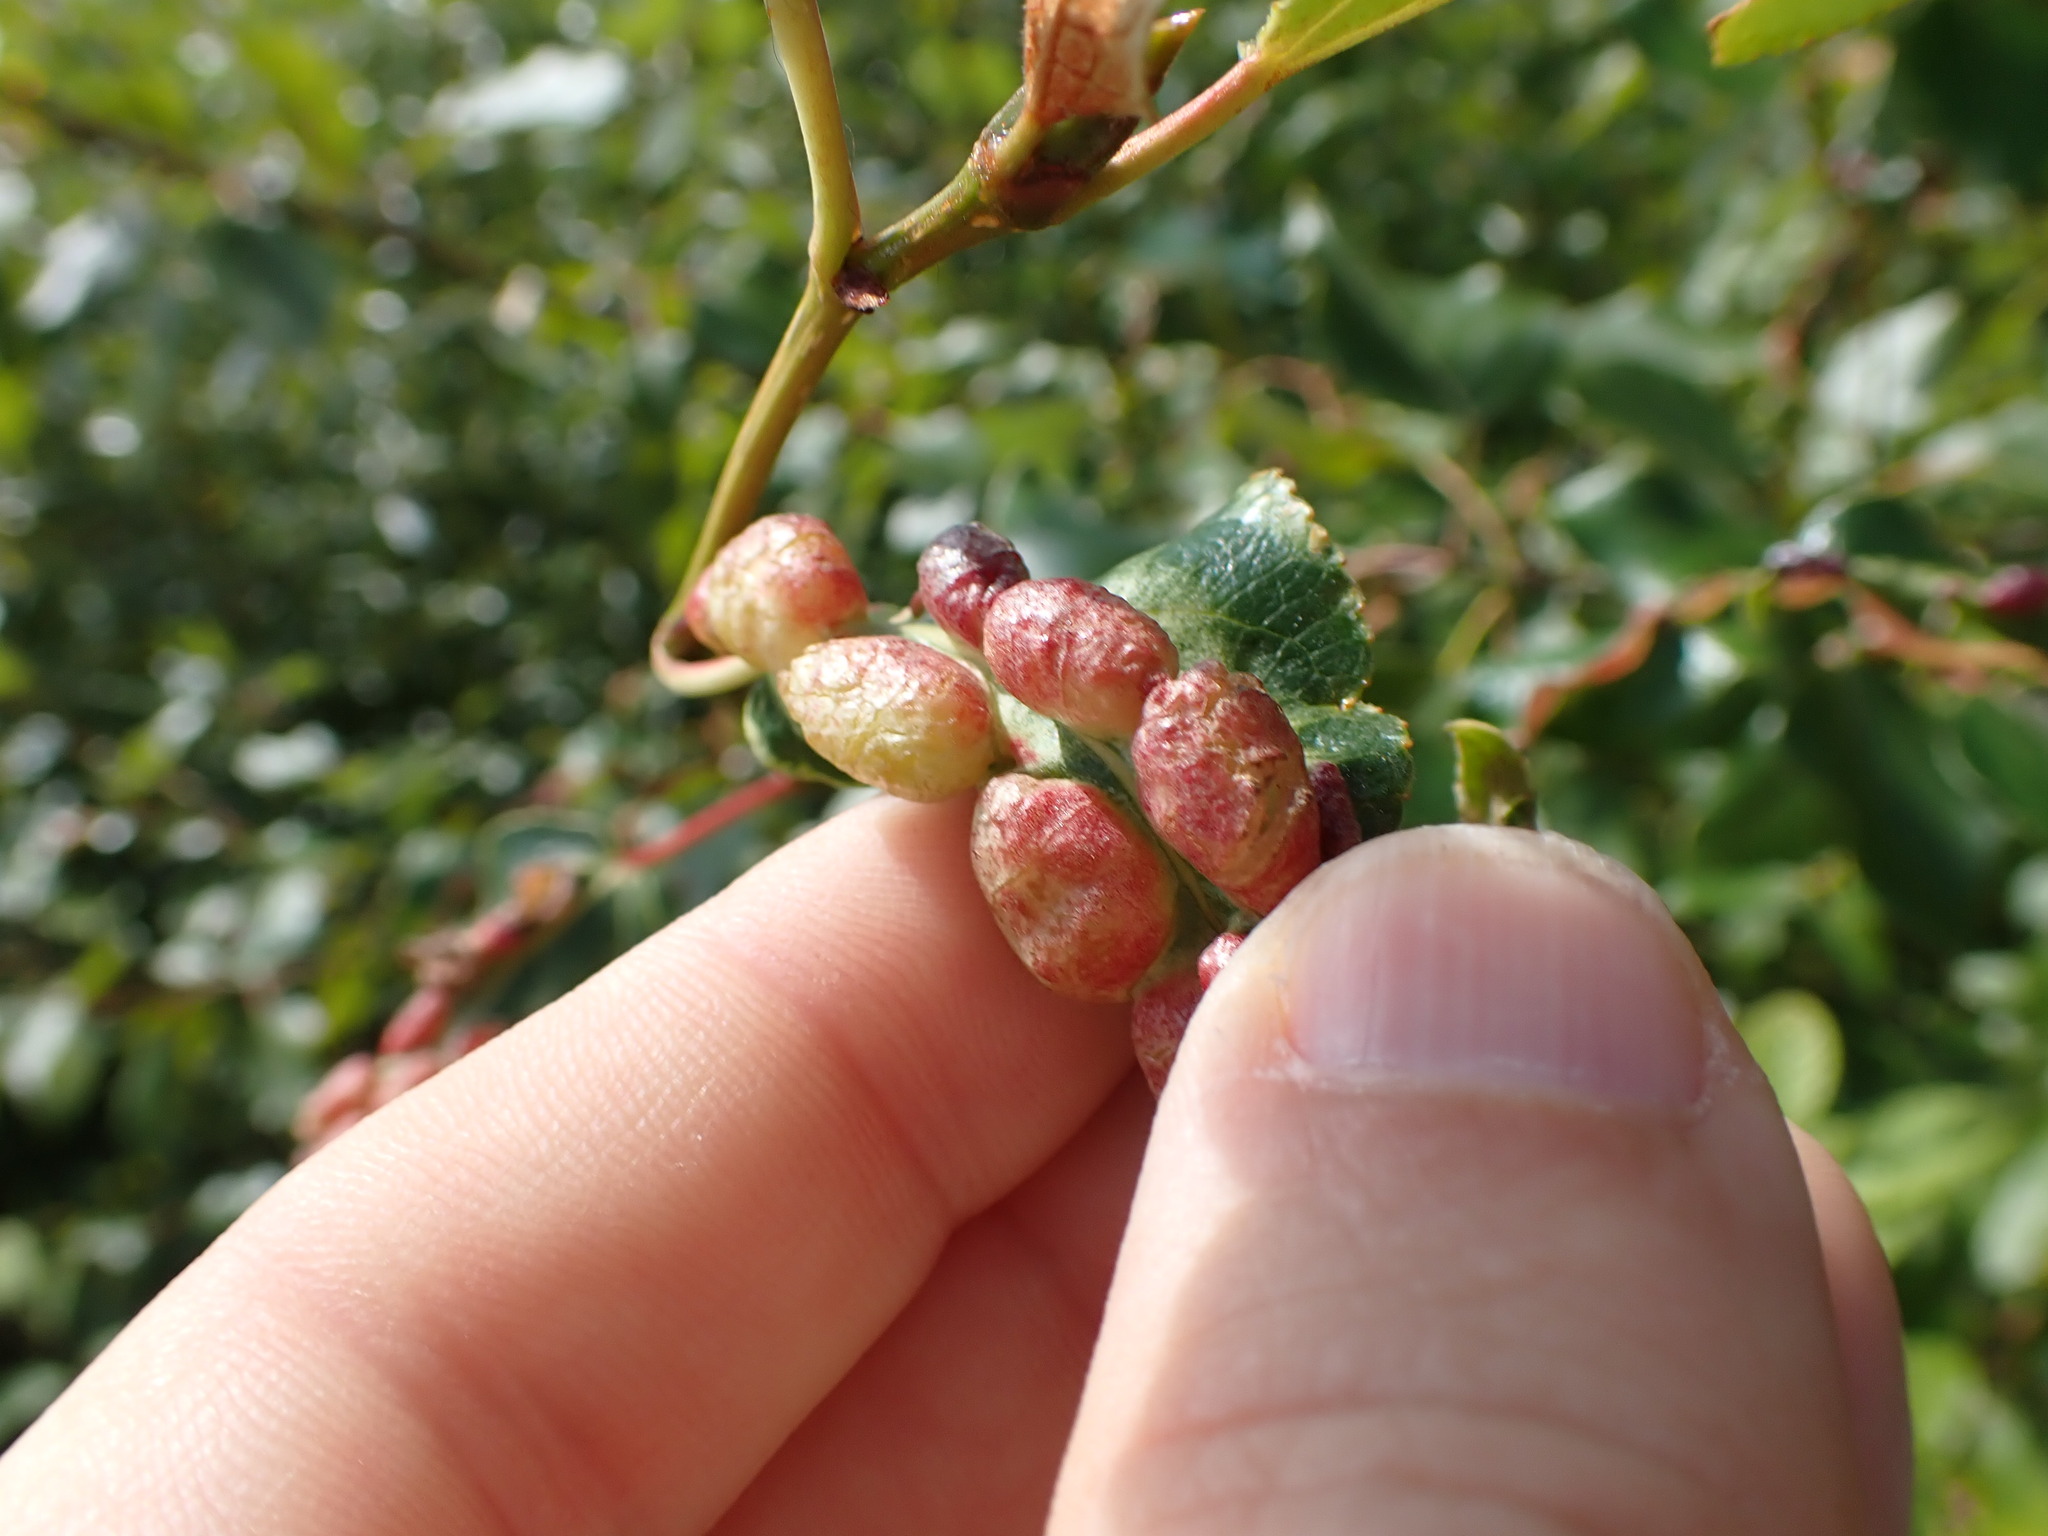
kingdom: Animalia
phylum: Arthropoda
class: Insecta
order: Hemiptera
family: Aphididae
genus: Thecabius
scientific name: Thecabius populimonilis
